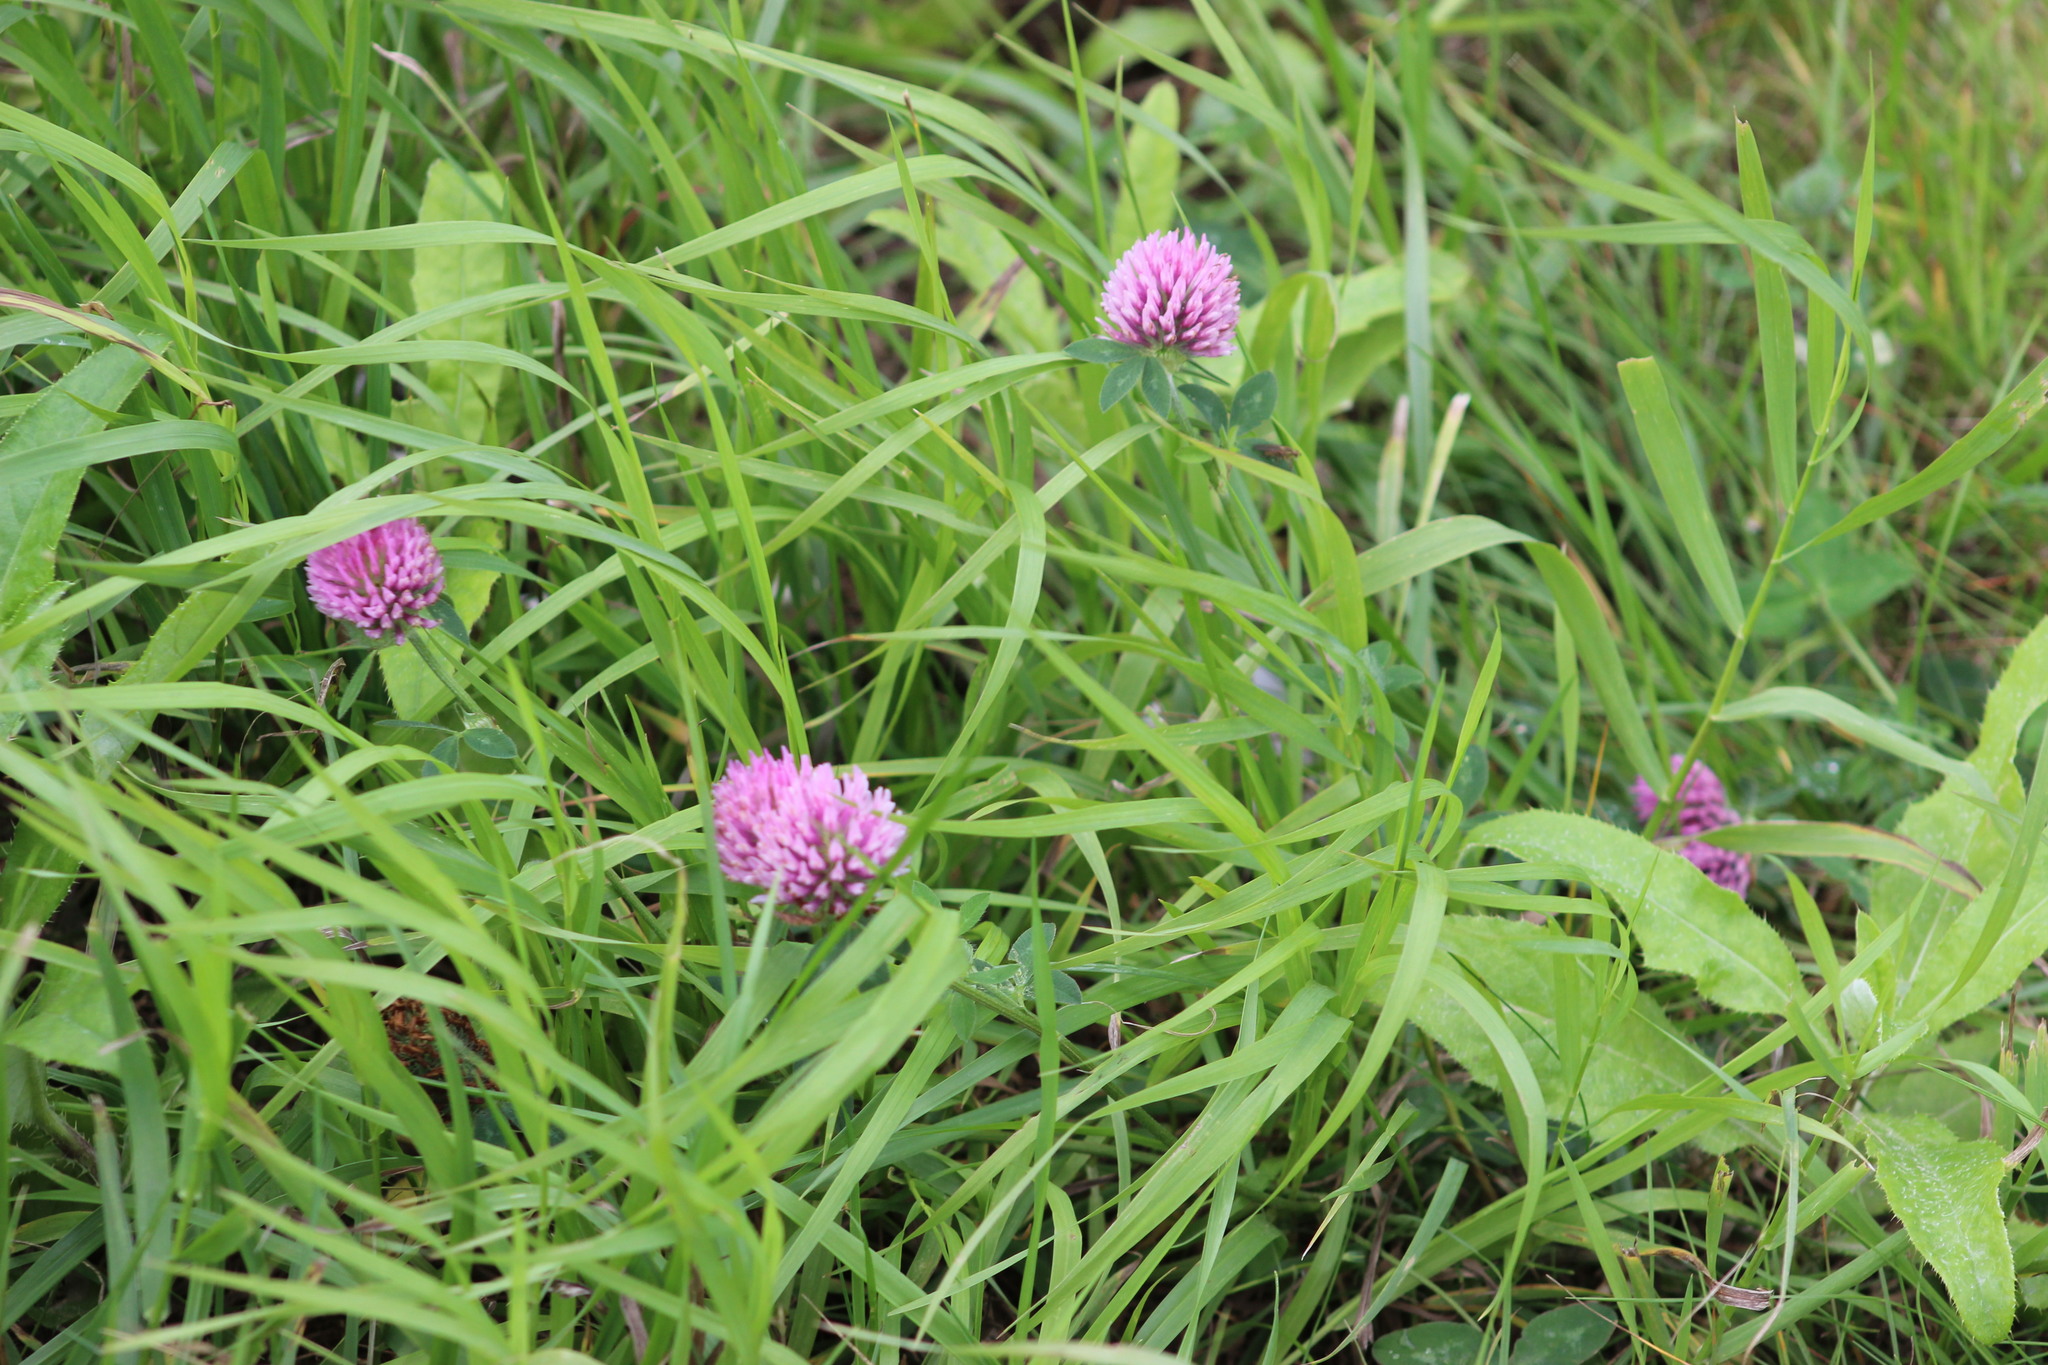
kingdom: Plantae
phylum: Tracheophyta
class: Magnoliopsida
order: Fabales
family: Fabaceae
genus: Trifolium
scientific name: Trifolium pratense
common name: Red clover
